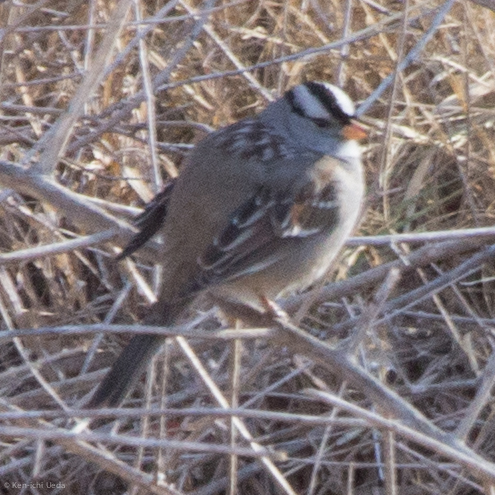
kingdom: Animalia
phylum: Chordata
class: Aves
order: Passeriformes
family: Passerellidae
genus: Zonotrichia
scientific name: Zonotrichia leucophrys
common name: White-crowned sparrow
